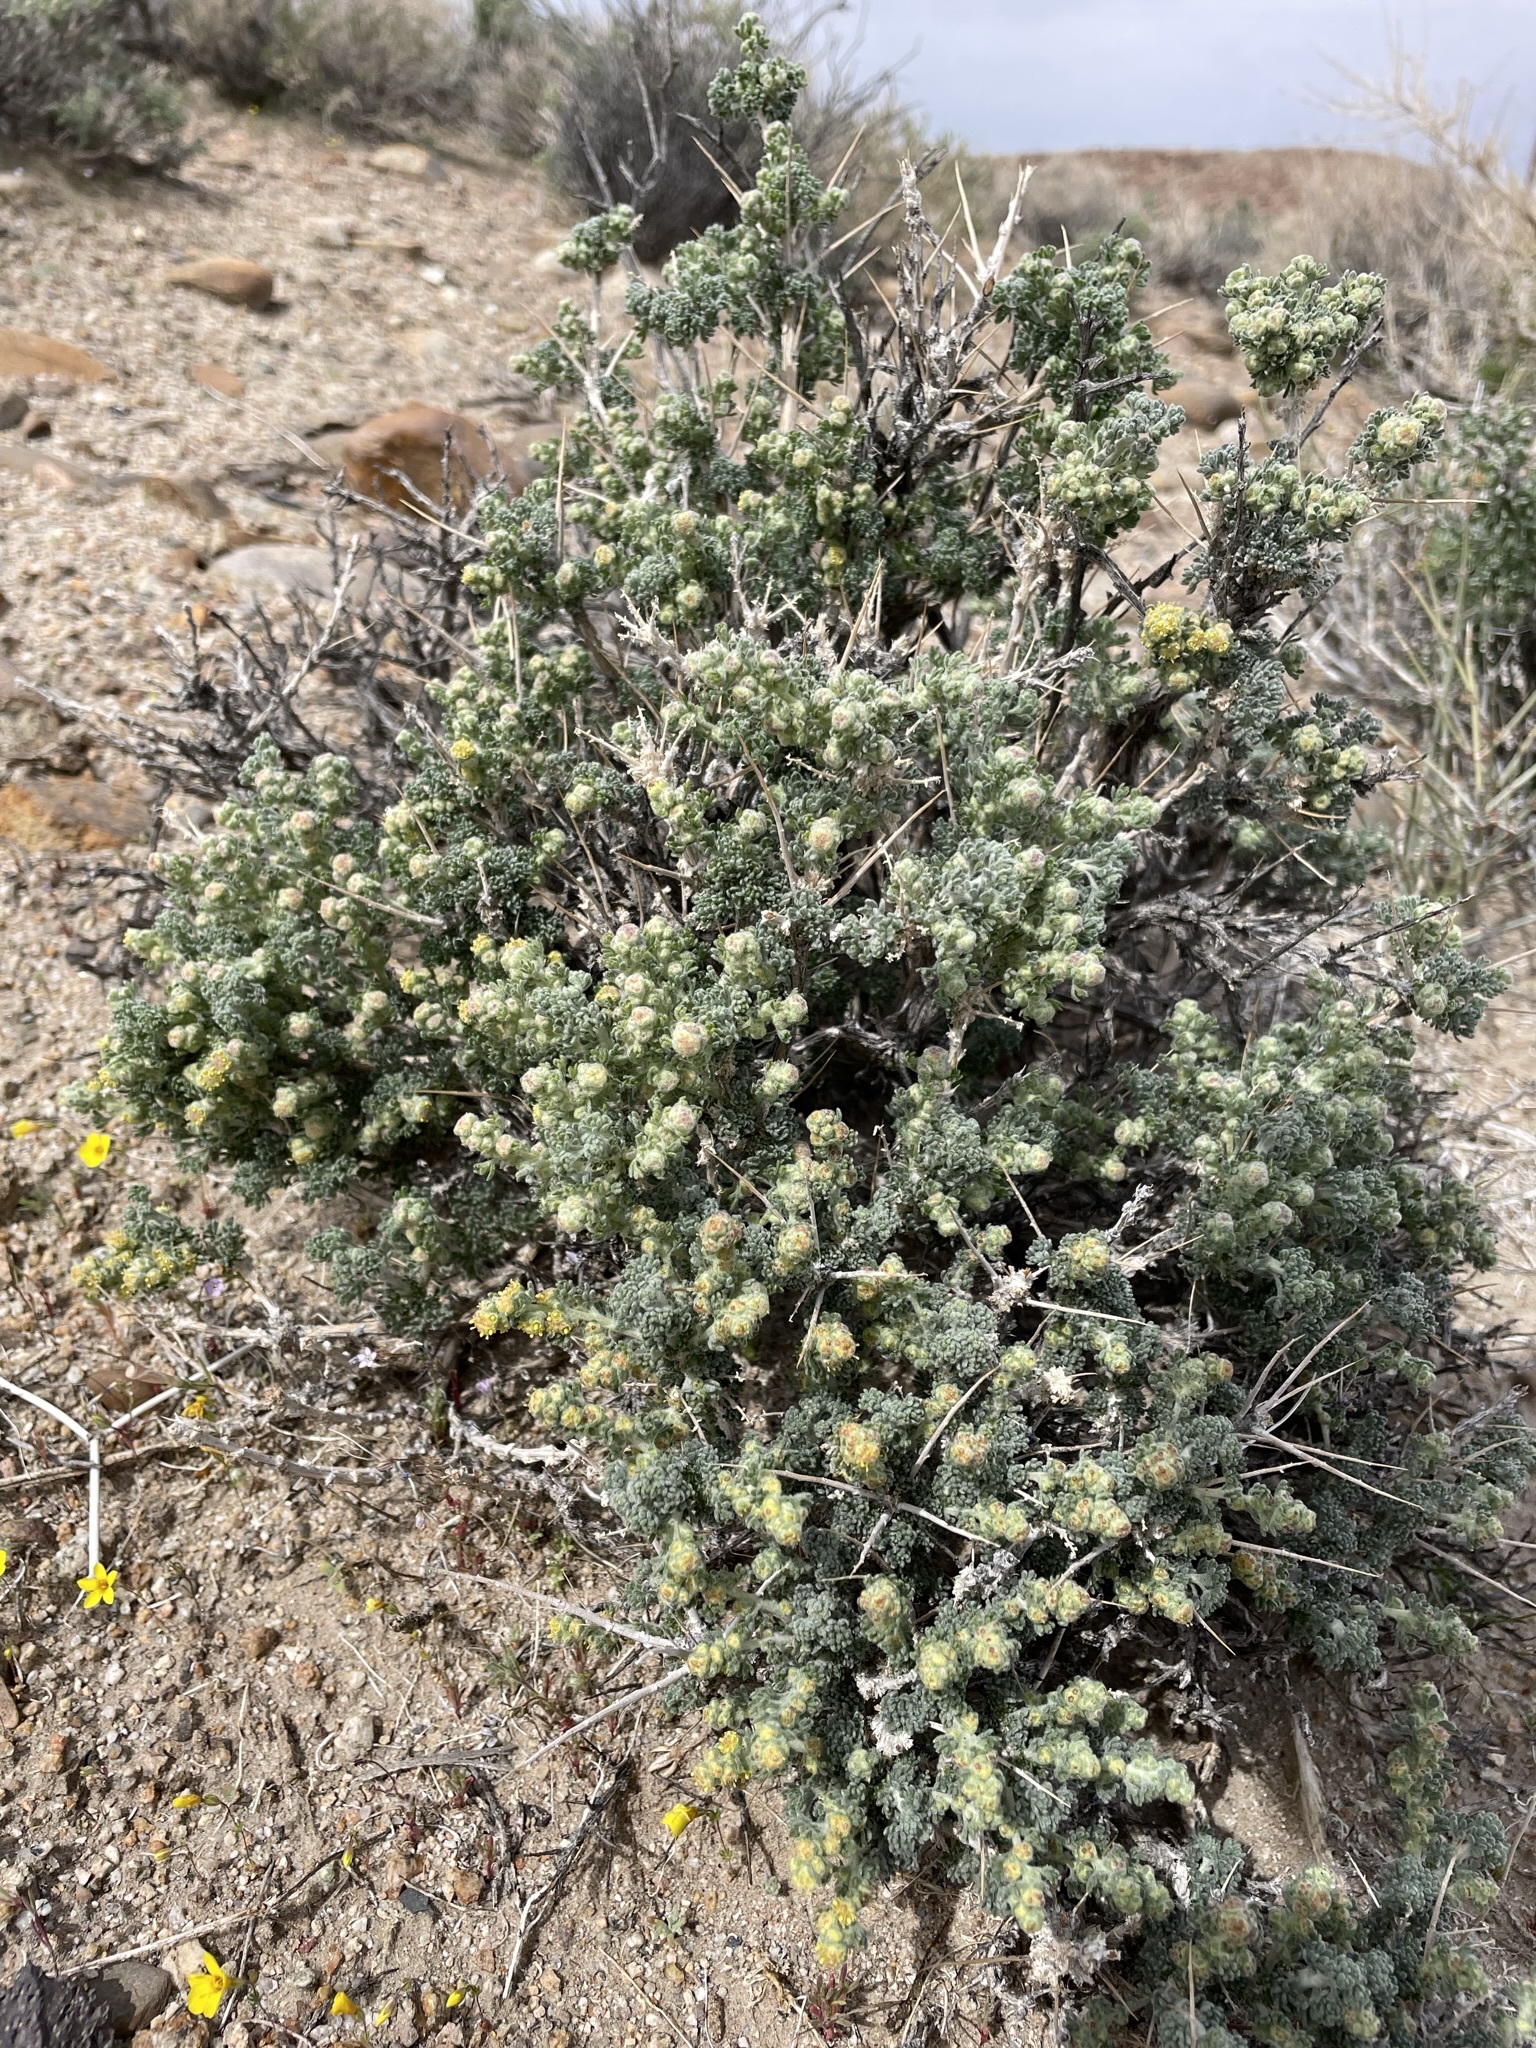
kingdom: Plantae
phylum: Tracheophyta
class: Magnoliopsida
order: Asterales
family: Asteraceae
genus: Artemisia
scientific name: Artemisia spinescens
